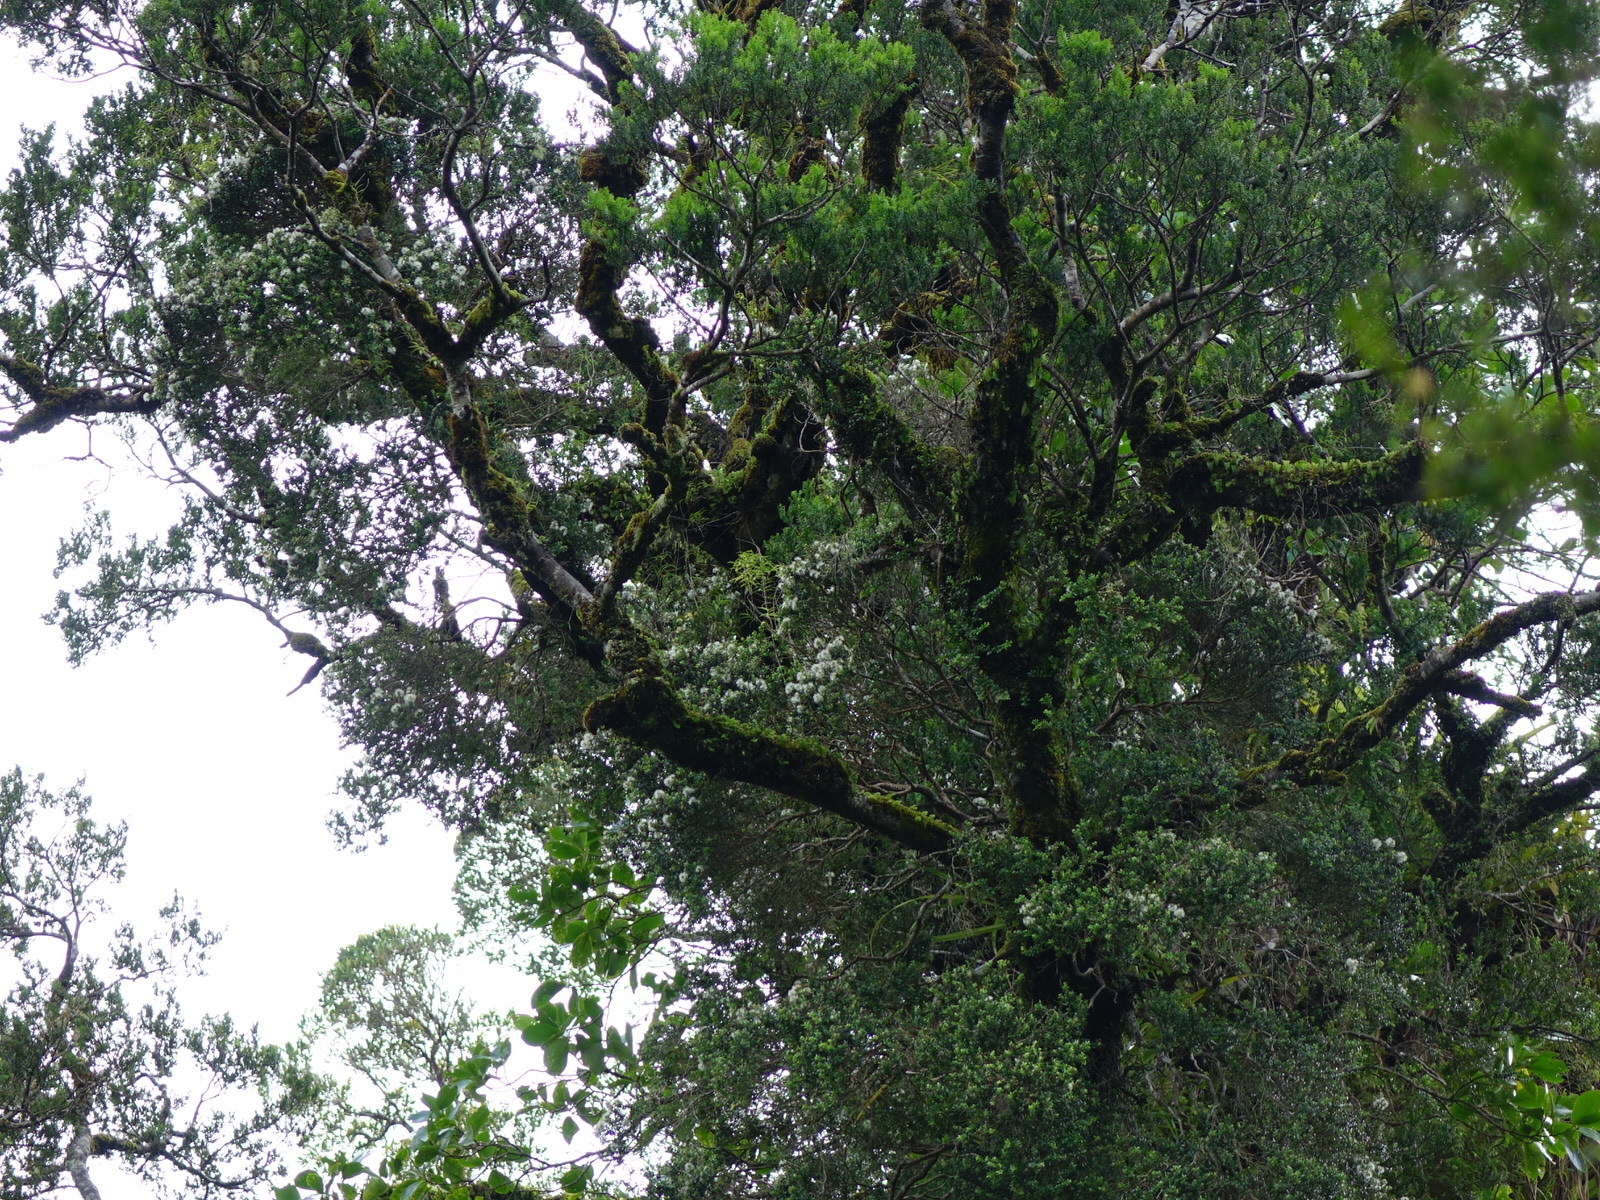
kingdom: Plantae
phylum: Tracheophyta
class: Magnoliopsida
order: Myrtales
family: Myrtaceae
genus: Metrosideros
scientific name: Metrosideros perforata
